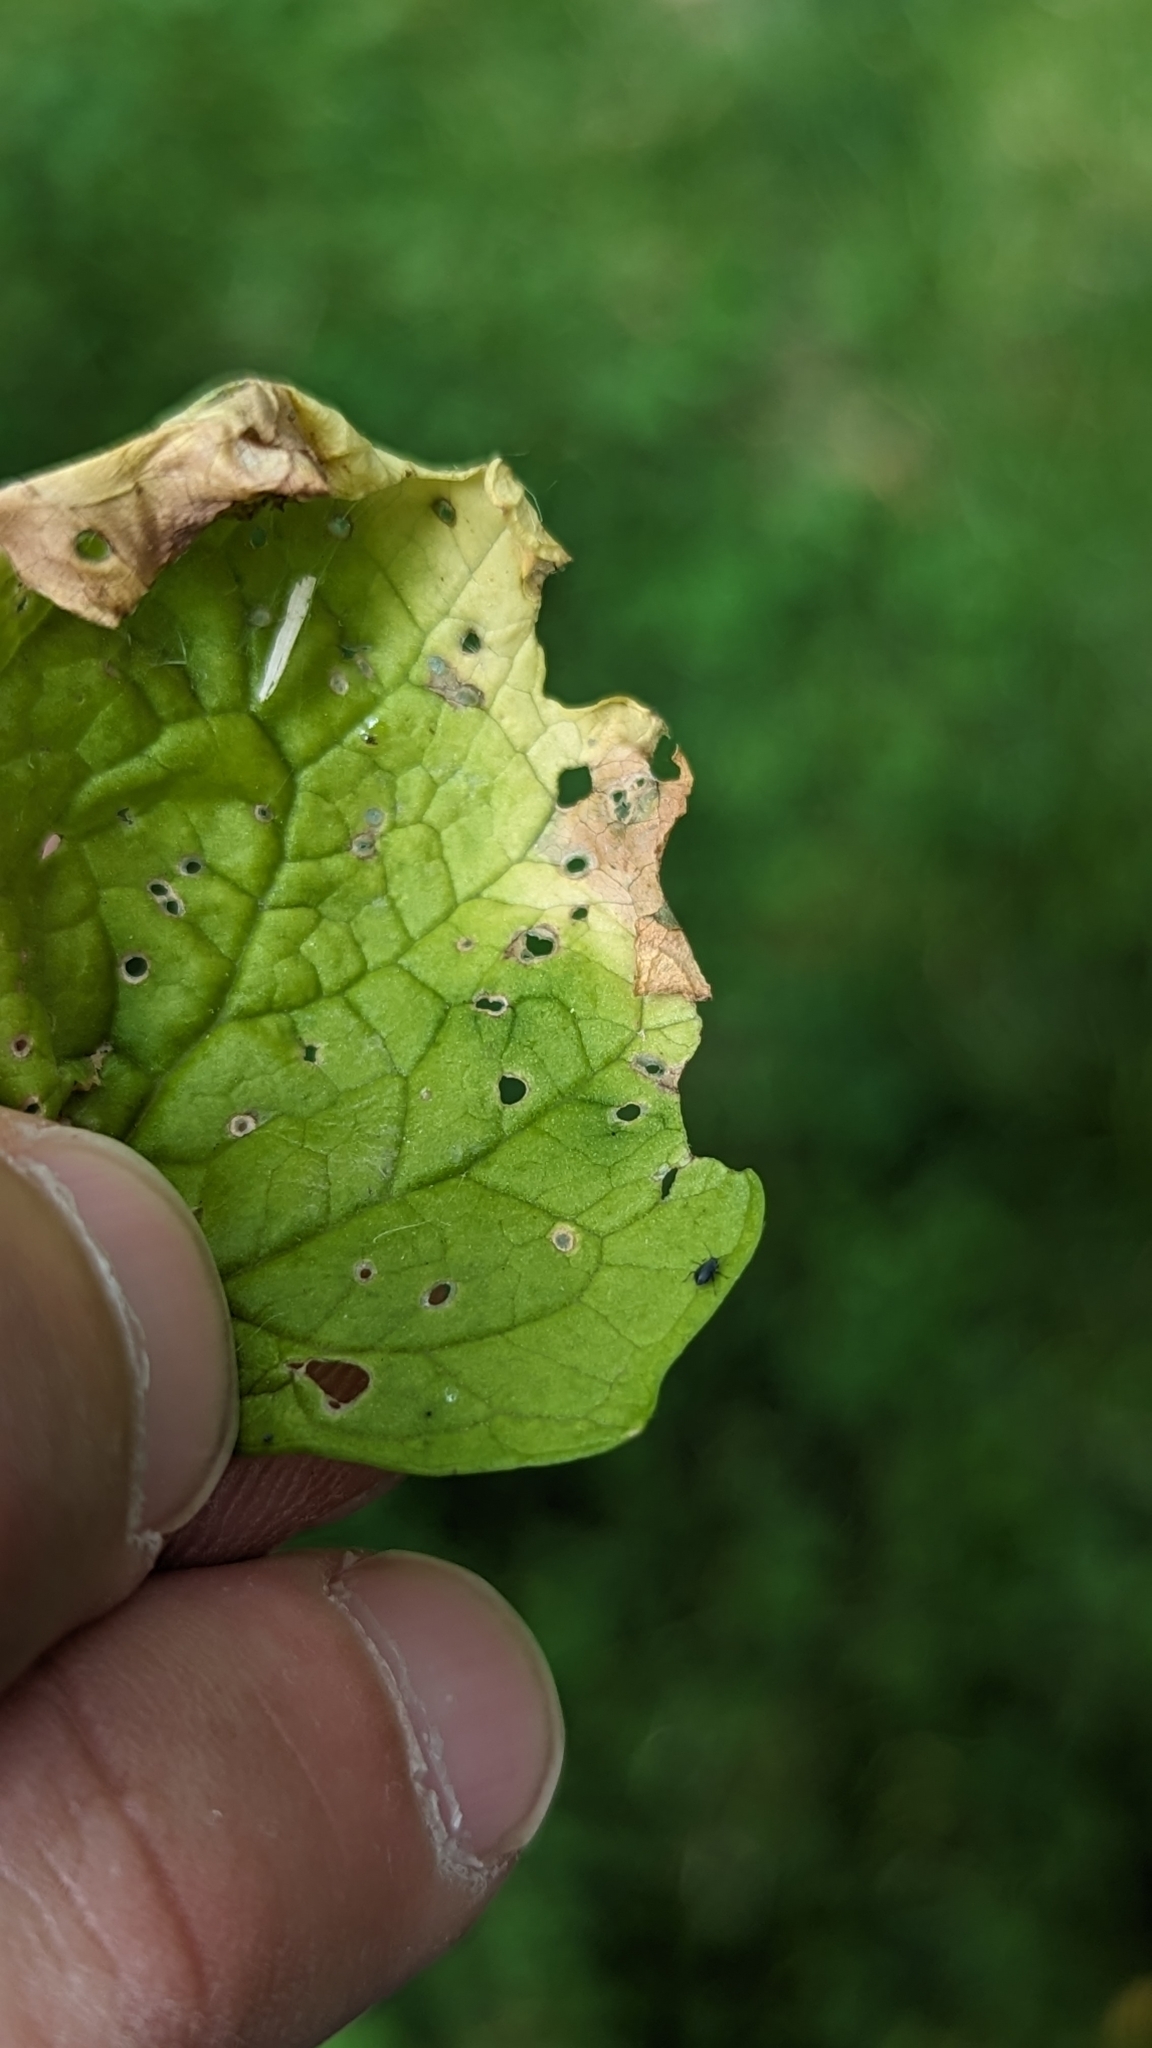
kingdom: Animalia
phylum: Arthropoda
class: Insecta
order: Hemiptera
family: Aphididae
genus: Lipaphis
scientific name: Lipaphis alliariae
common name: Granade aphid
